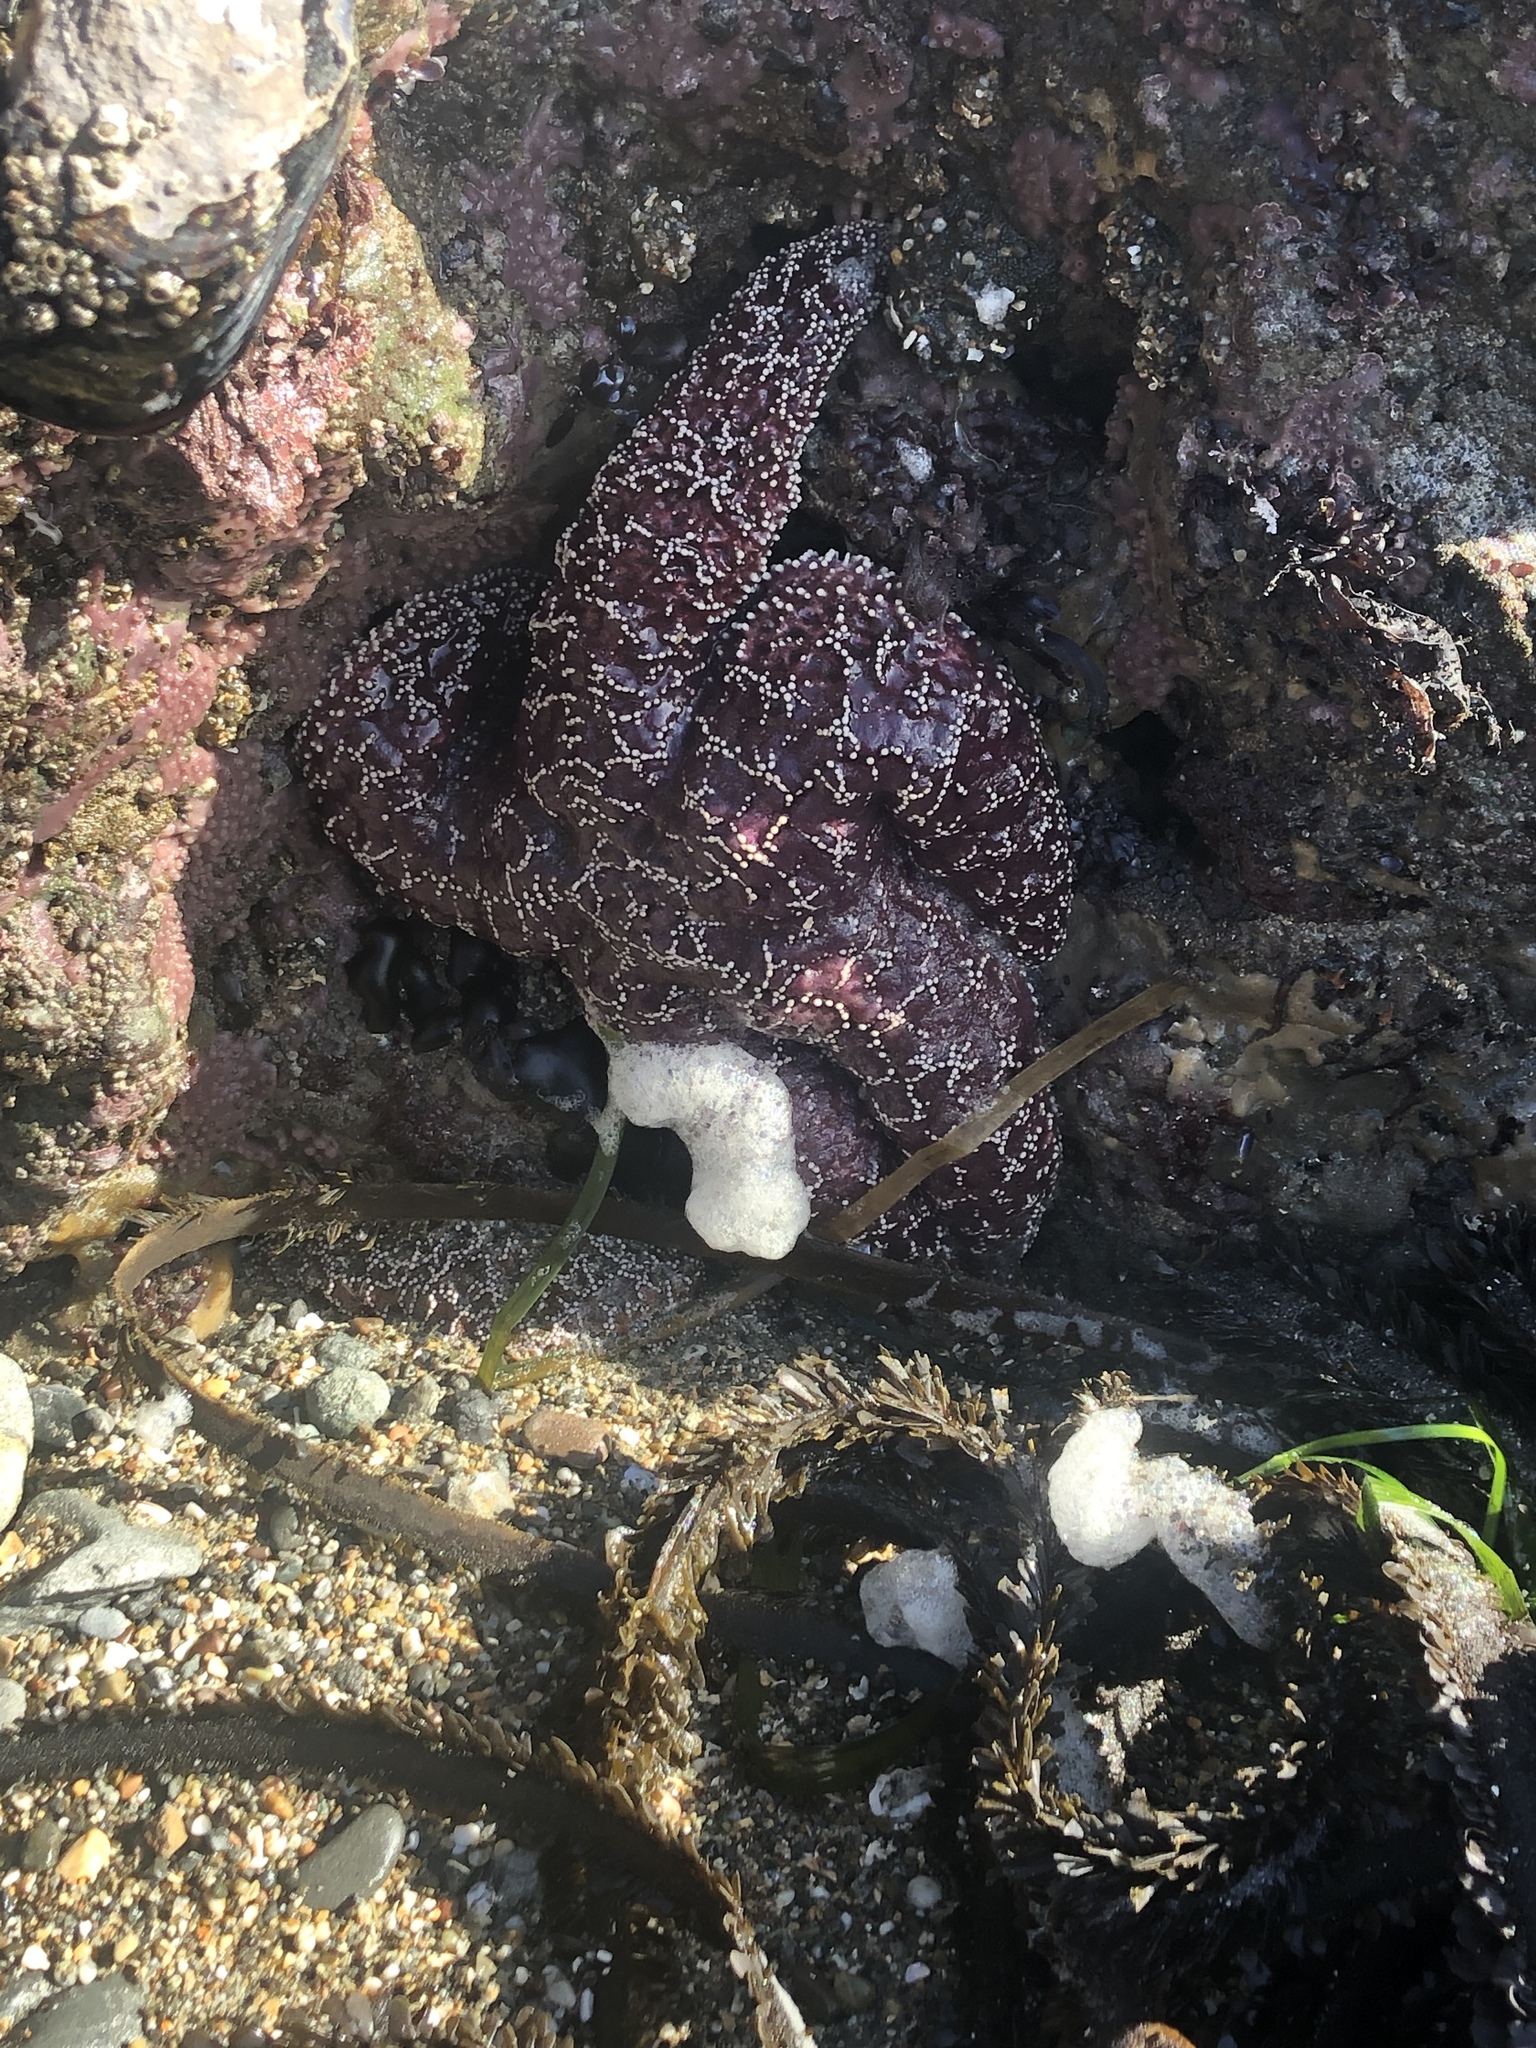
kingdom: Animalia
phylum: Echinodermata
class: Asteroidea
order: Forcipulatida
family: Asteriidae
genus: Pisaster
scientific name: Pisaster ochraceus
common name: Ochre stars
